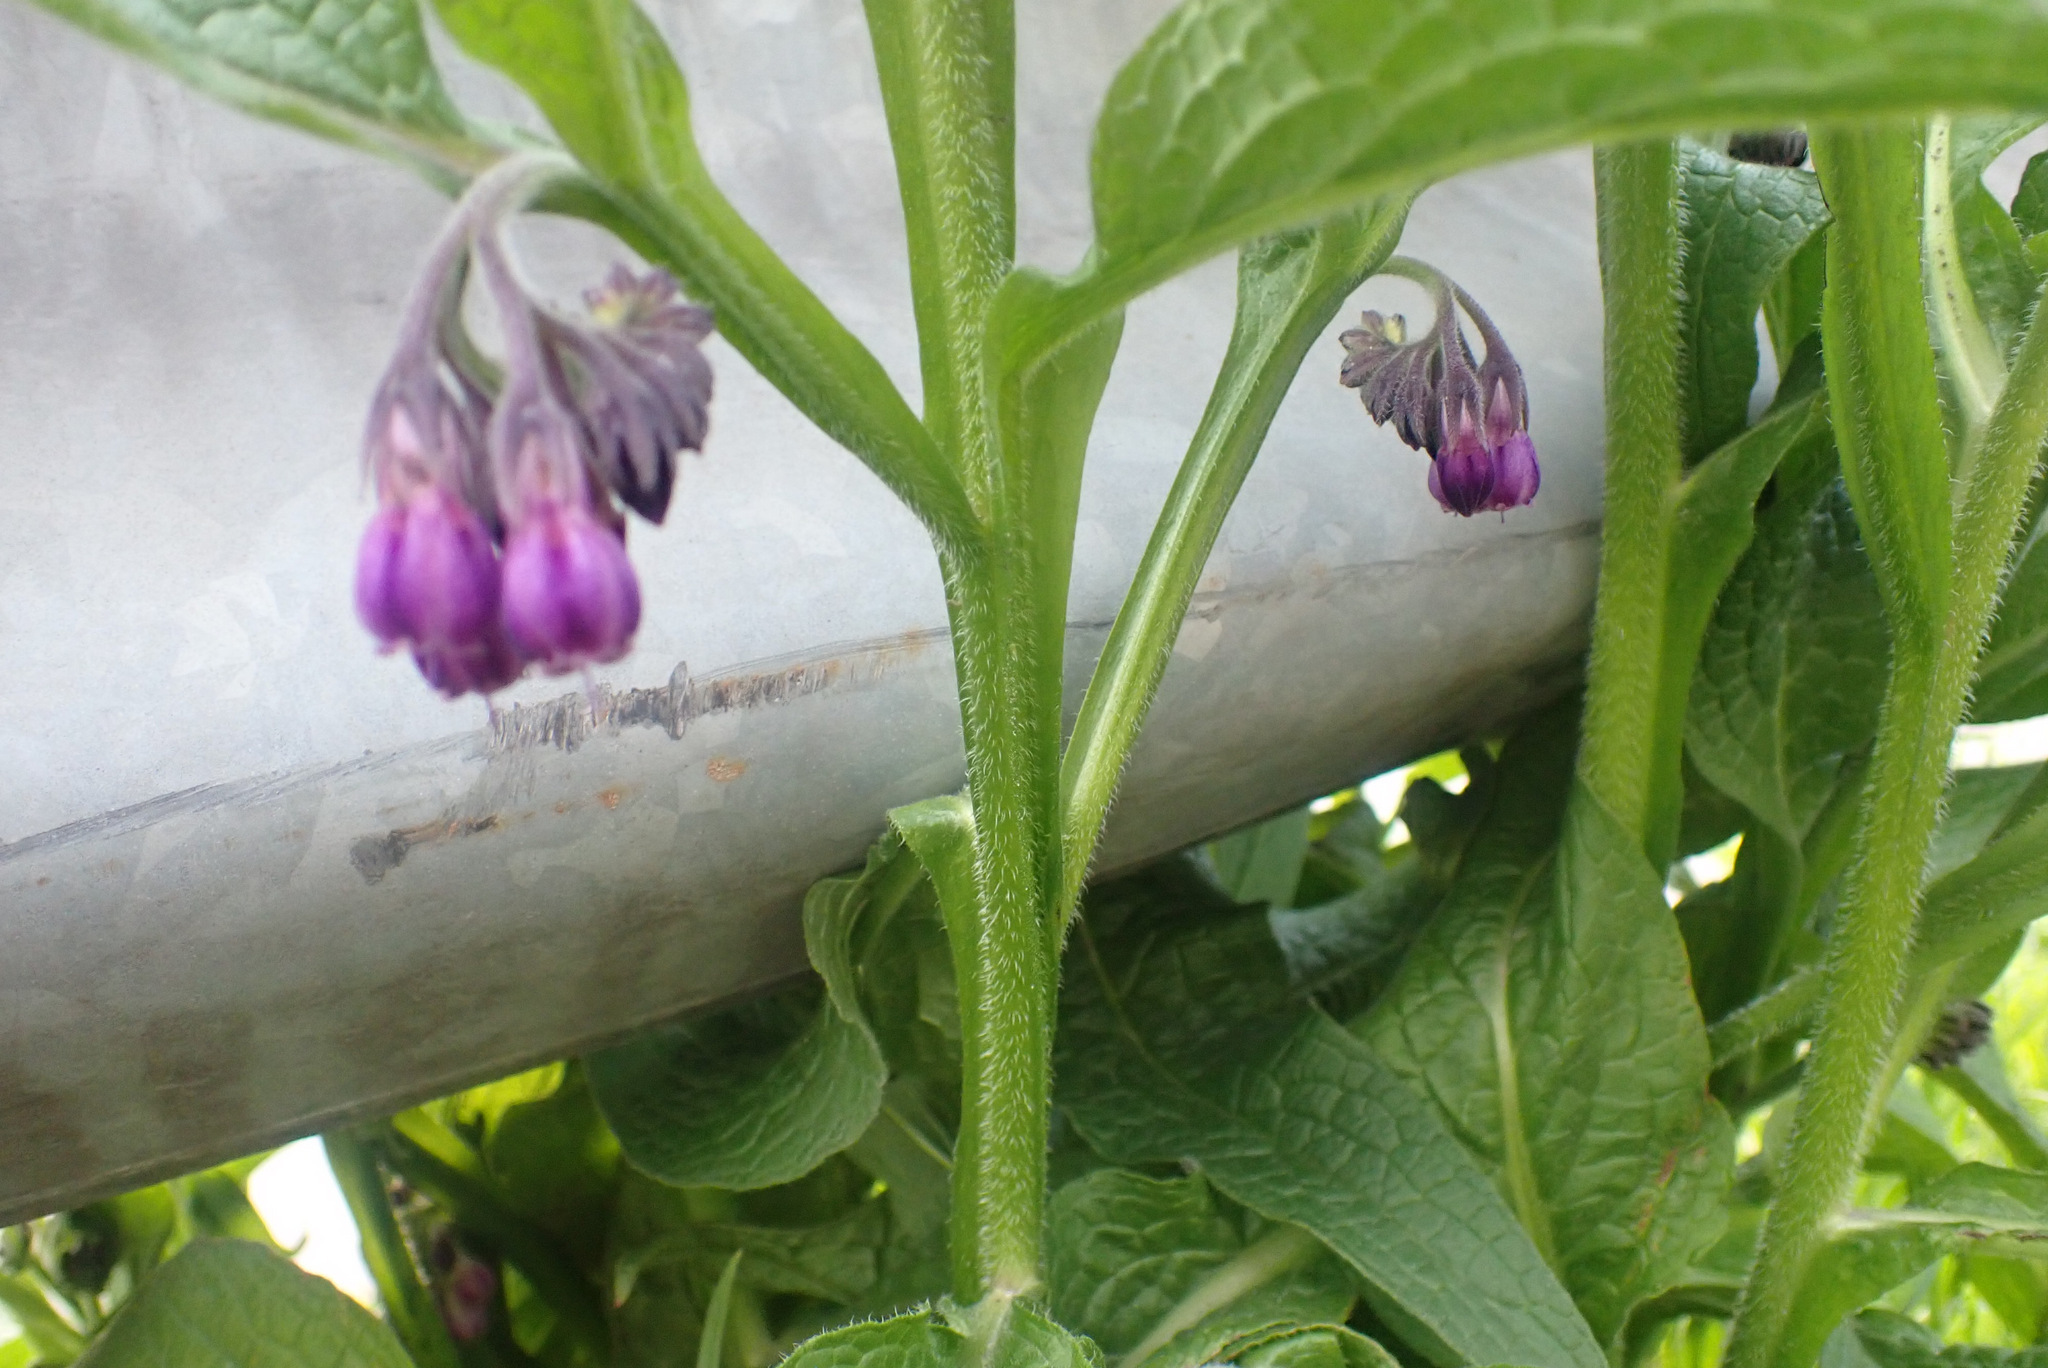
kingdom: Plantae
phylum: Tracheophyta
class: Magnoliopsida
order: Boraginales
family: Boraginaceae
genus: Symphytum
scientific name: Symphytum officinale
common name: Common comfrey
